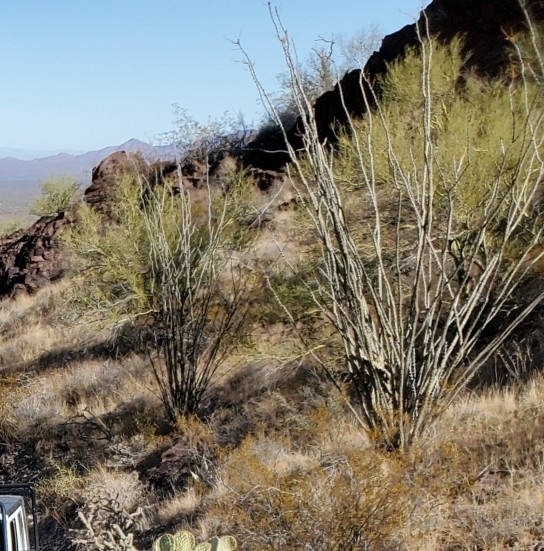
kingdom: Plantae
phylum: Tracheophyta
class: Magnoliopsida
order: Ericales
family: Fouquieriaceae
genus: Fouquieria
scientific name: Fouquieria splendens
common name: Vine-cactus
